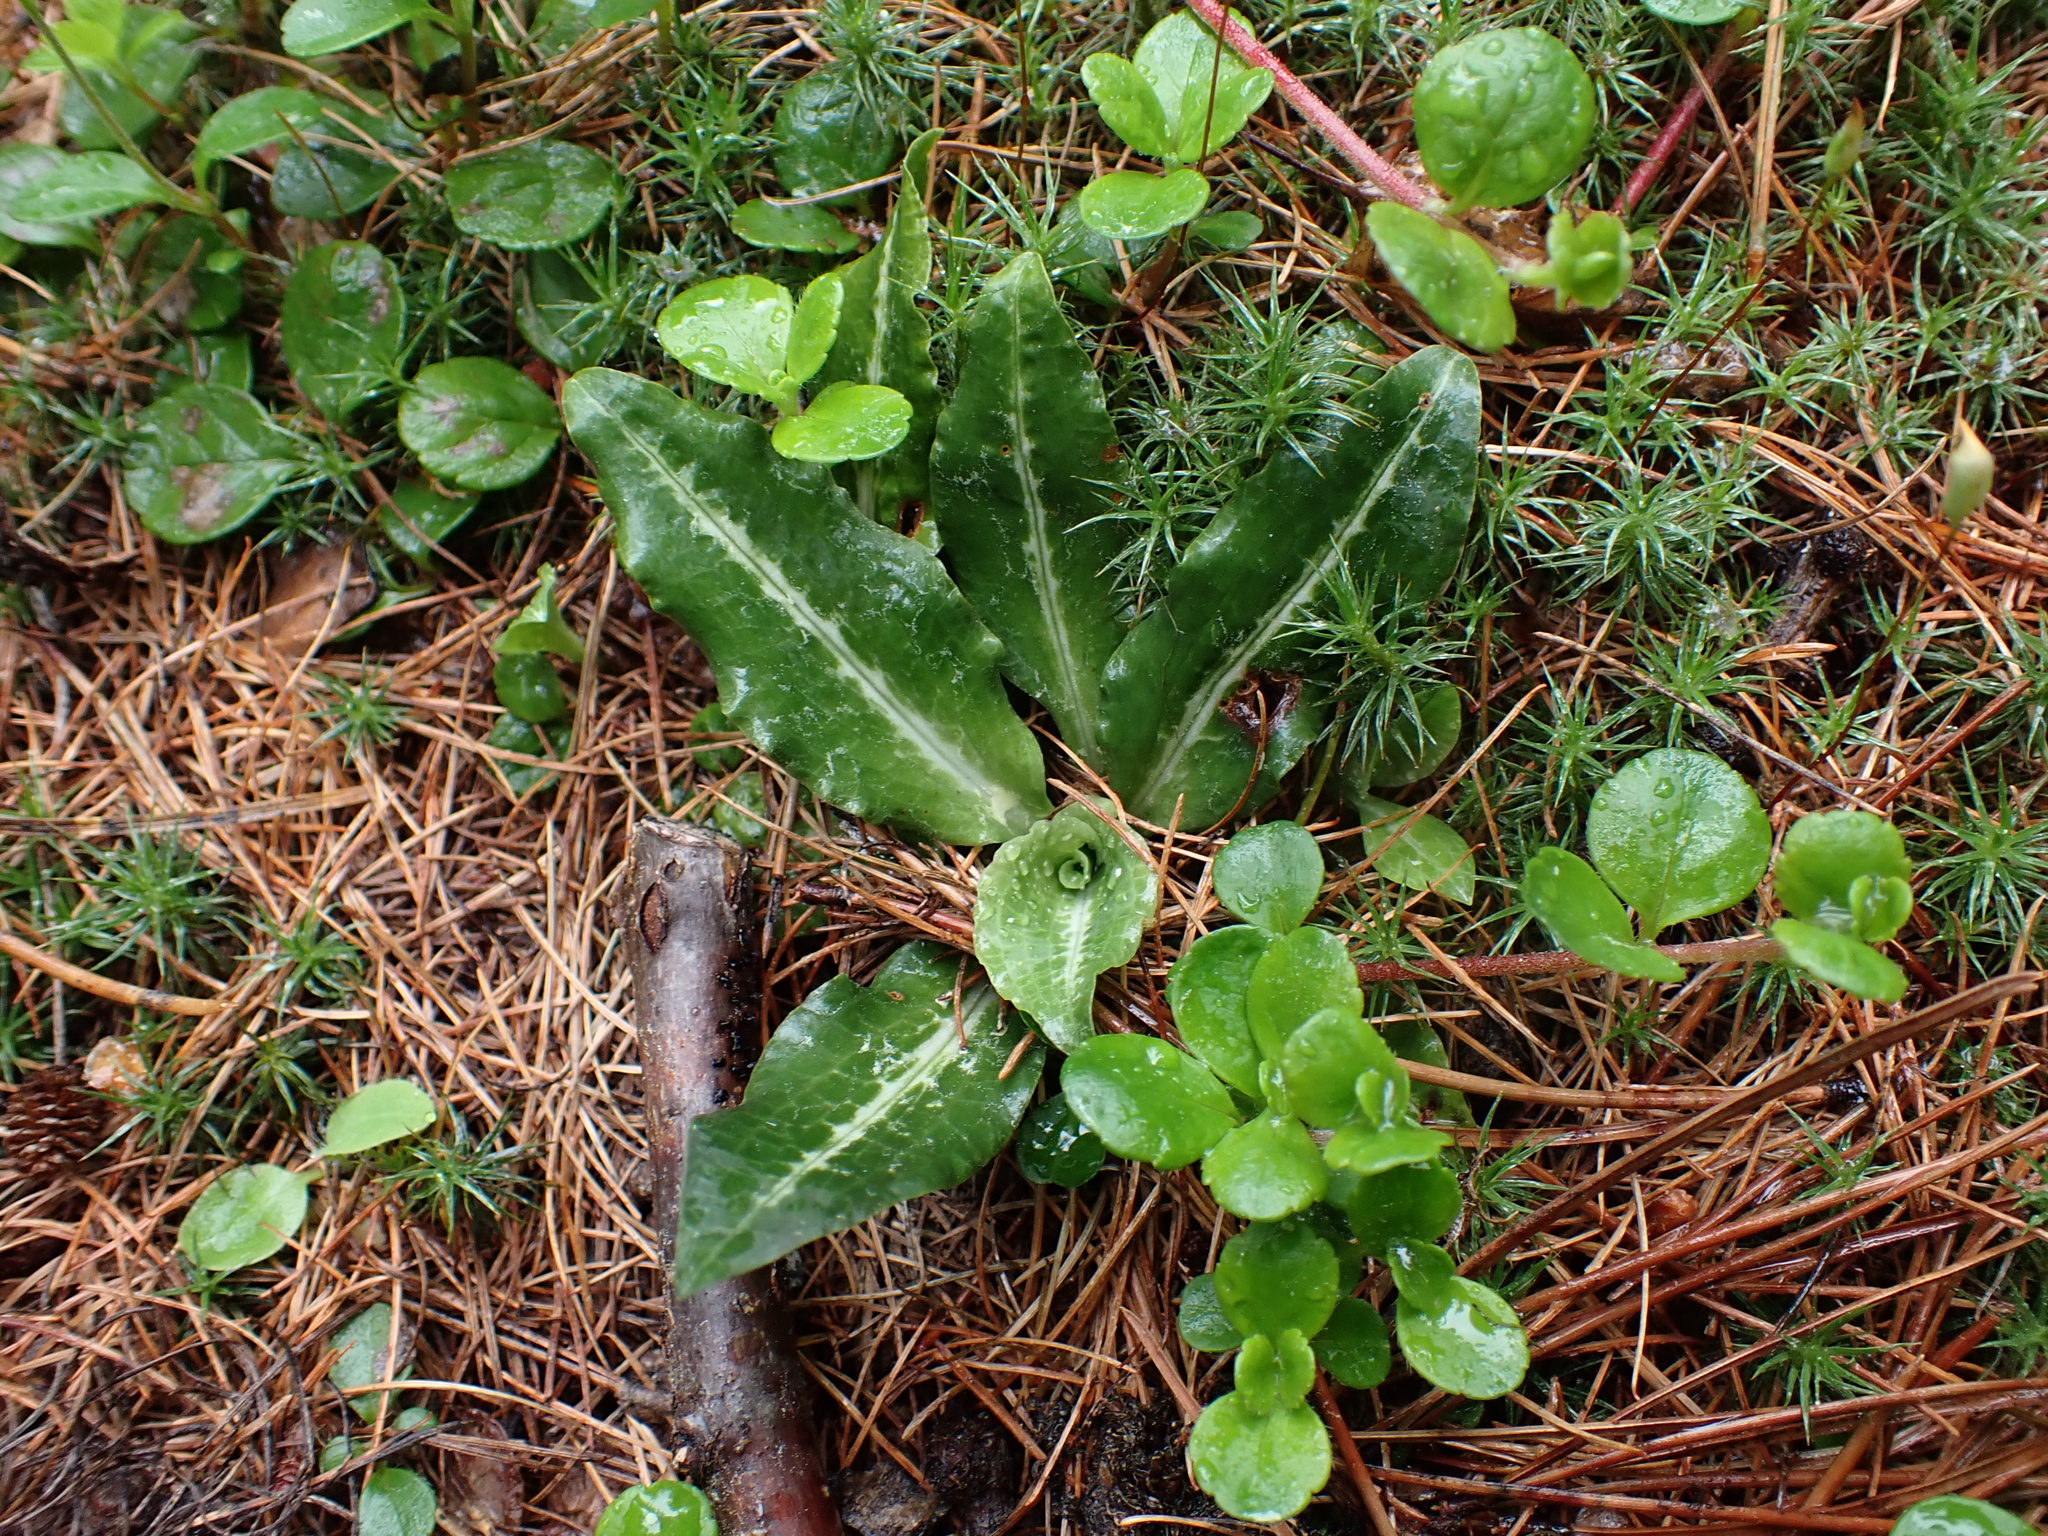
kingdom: Plantae
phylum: Tracheophyta
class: Liliopsida
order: Asparagales
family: Orchidaceae
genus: Goodyera
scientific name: Goodyera oblongifolia
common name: Giant rattlesnake-plantain
